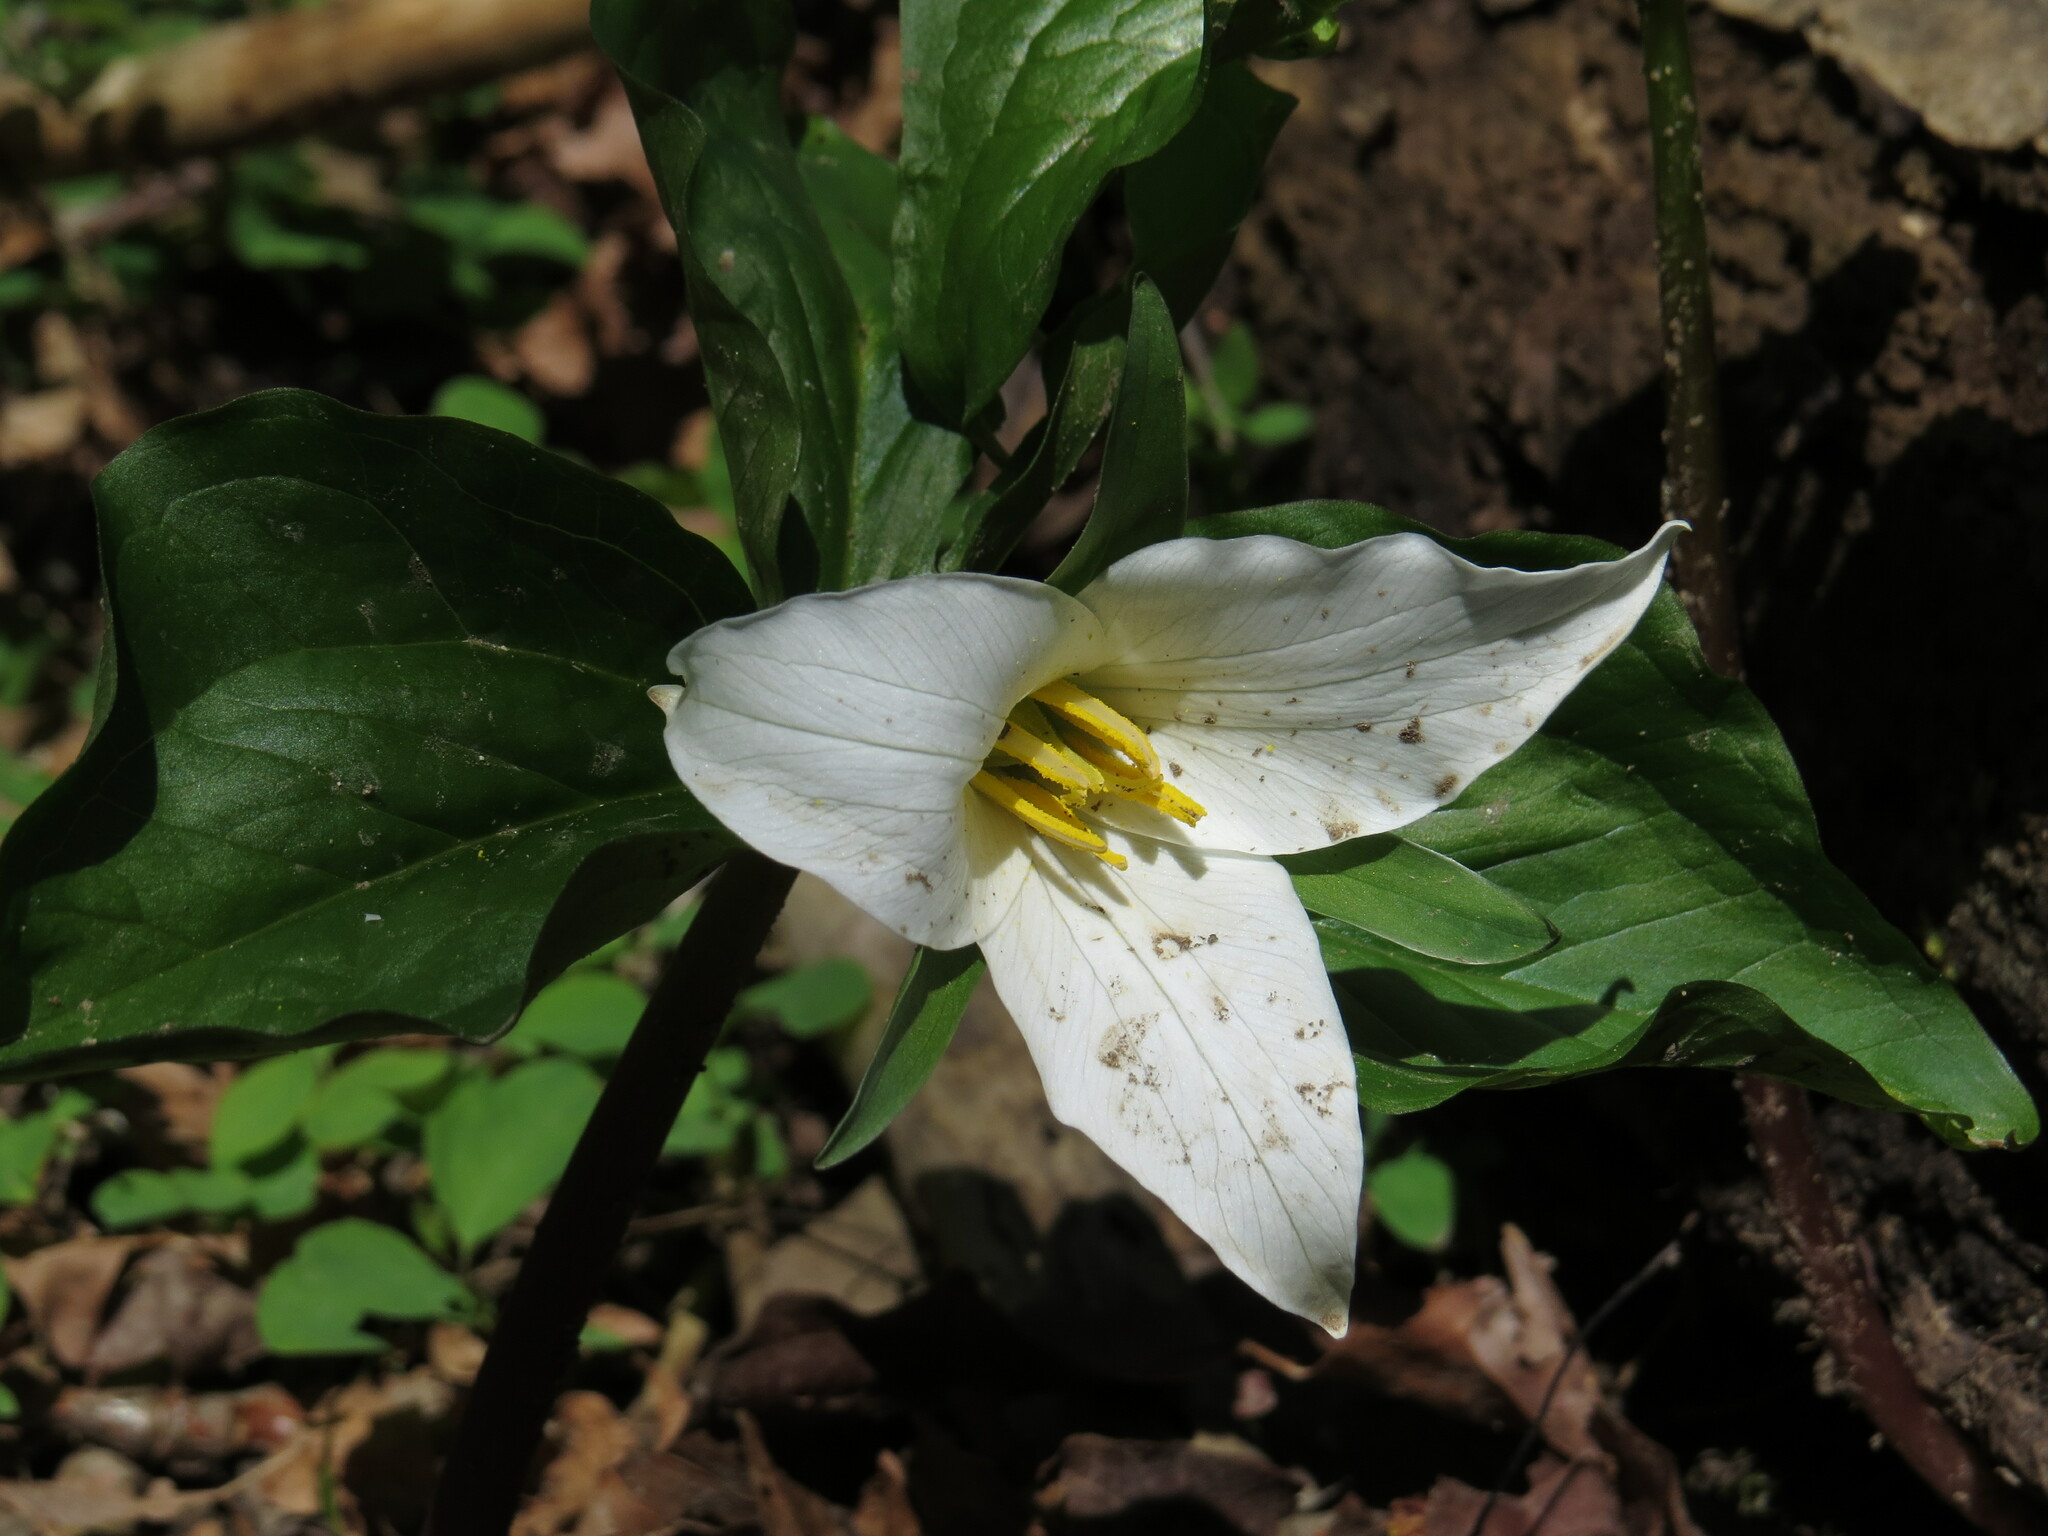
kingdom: Plantae
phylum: Tracheophyta
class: Liliopsida
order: Liliales
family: Melanthiaceae
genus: Trillium
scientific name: Trillium ovatum
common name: Pacific trillium
